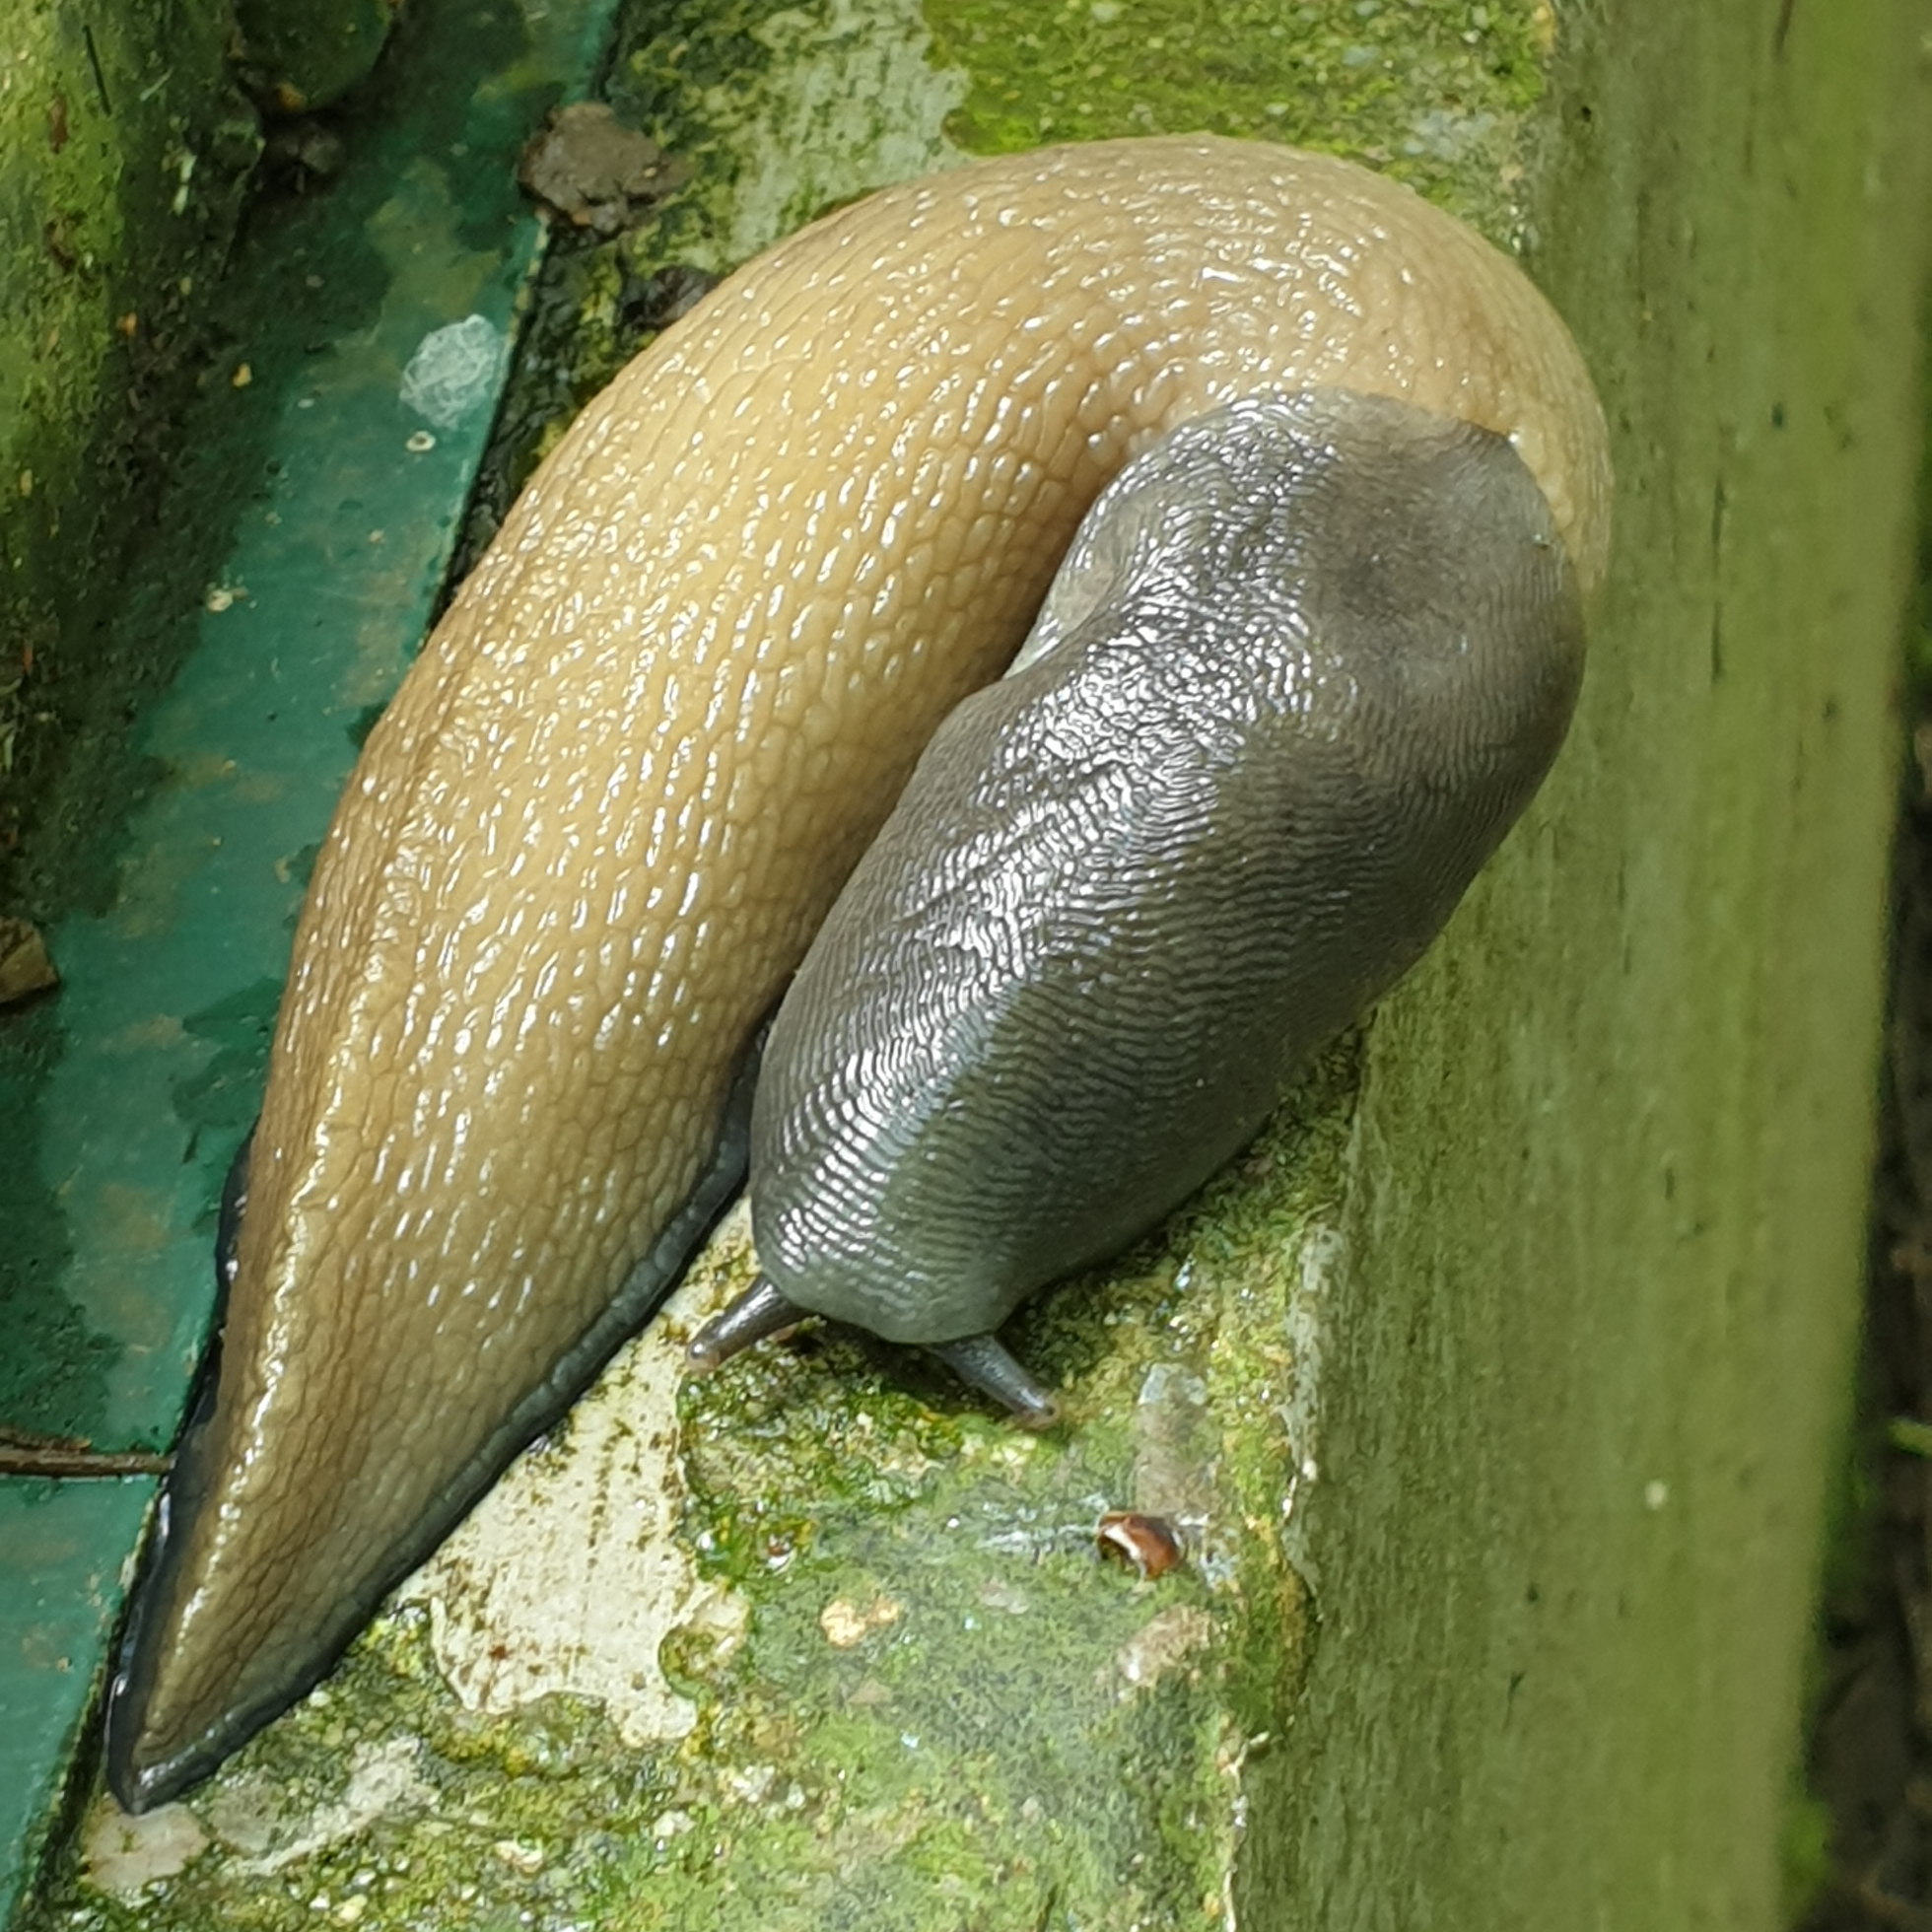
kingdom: Animalia
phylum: Mollusca
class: Gastropoda
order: Stylommatophora
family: Limacidae
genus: Limax
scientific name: Limax cinereoniger
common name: Ash-black slug
